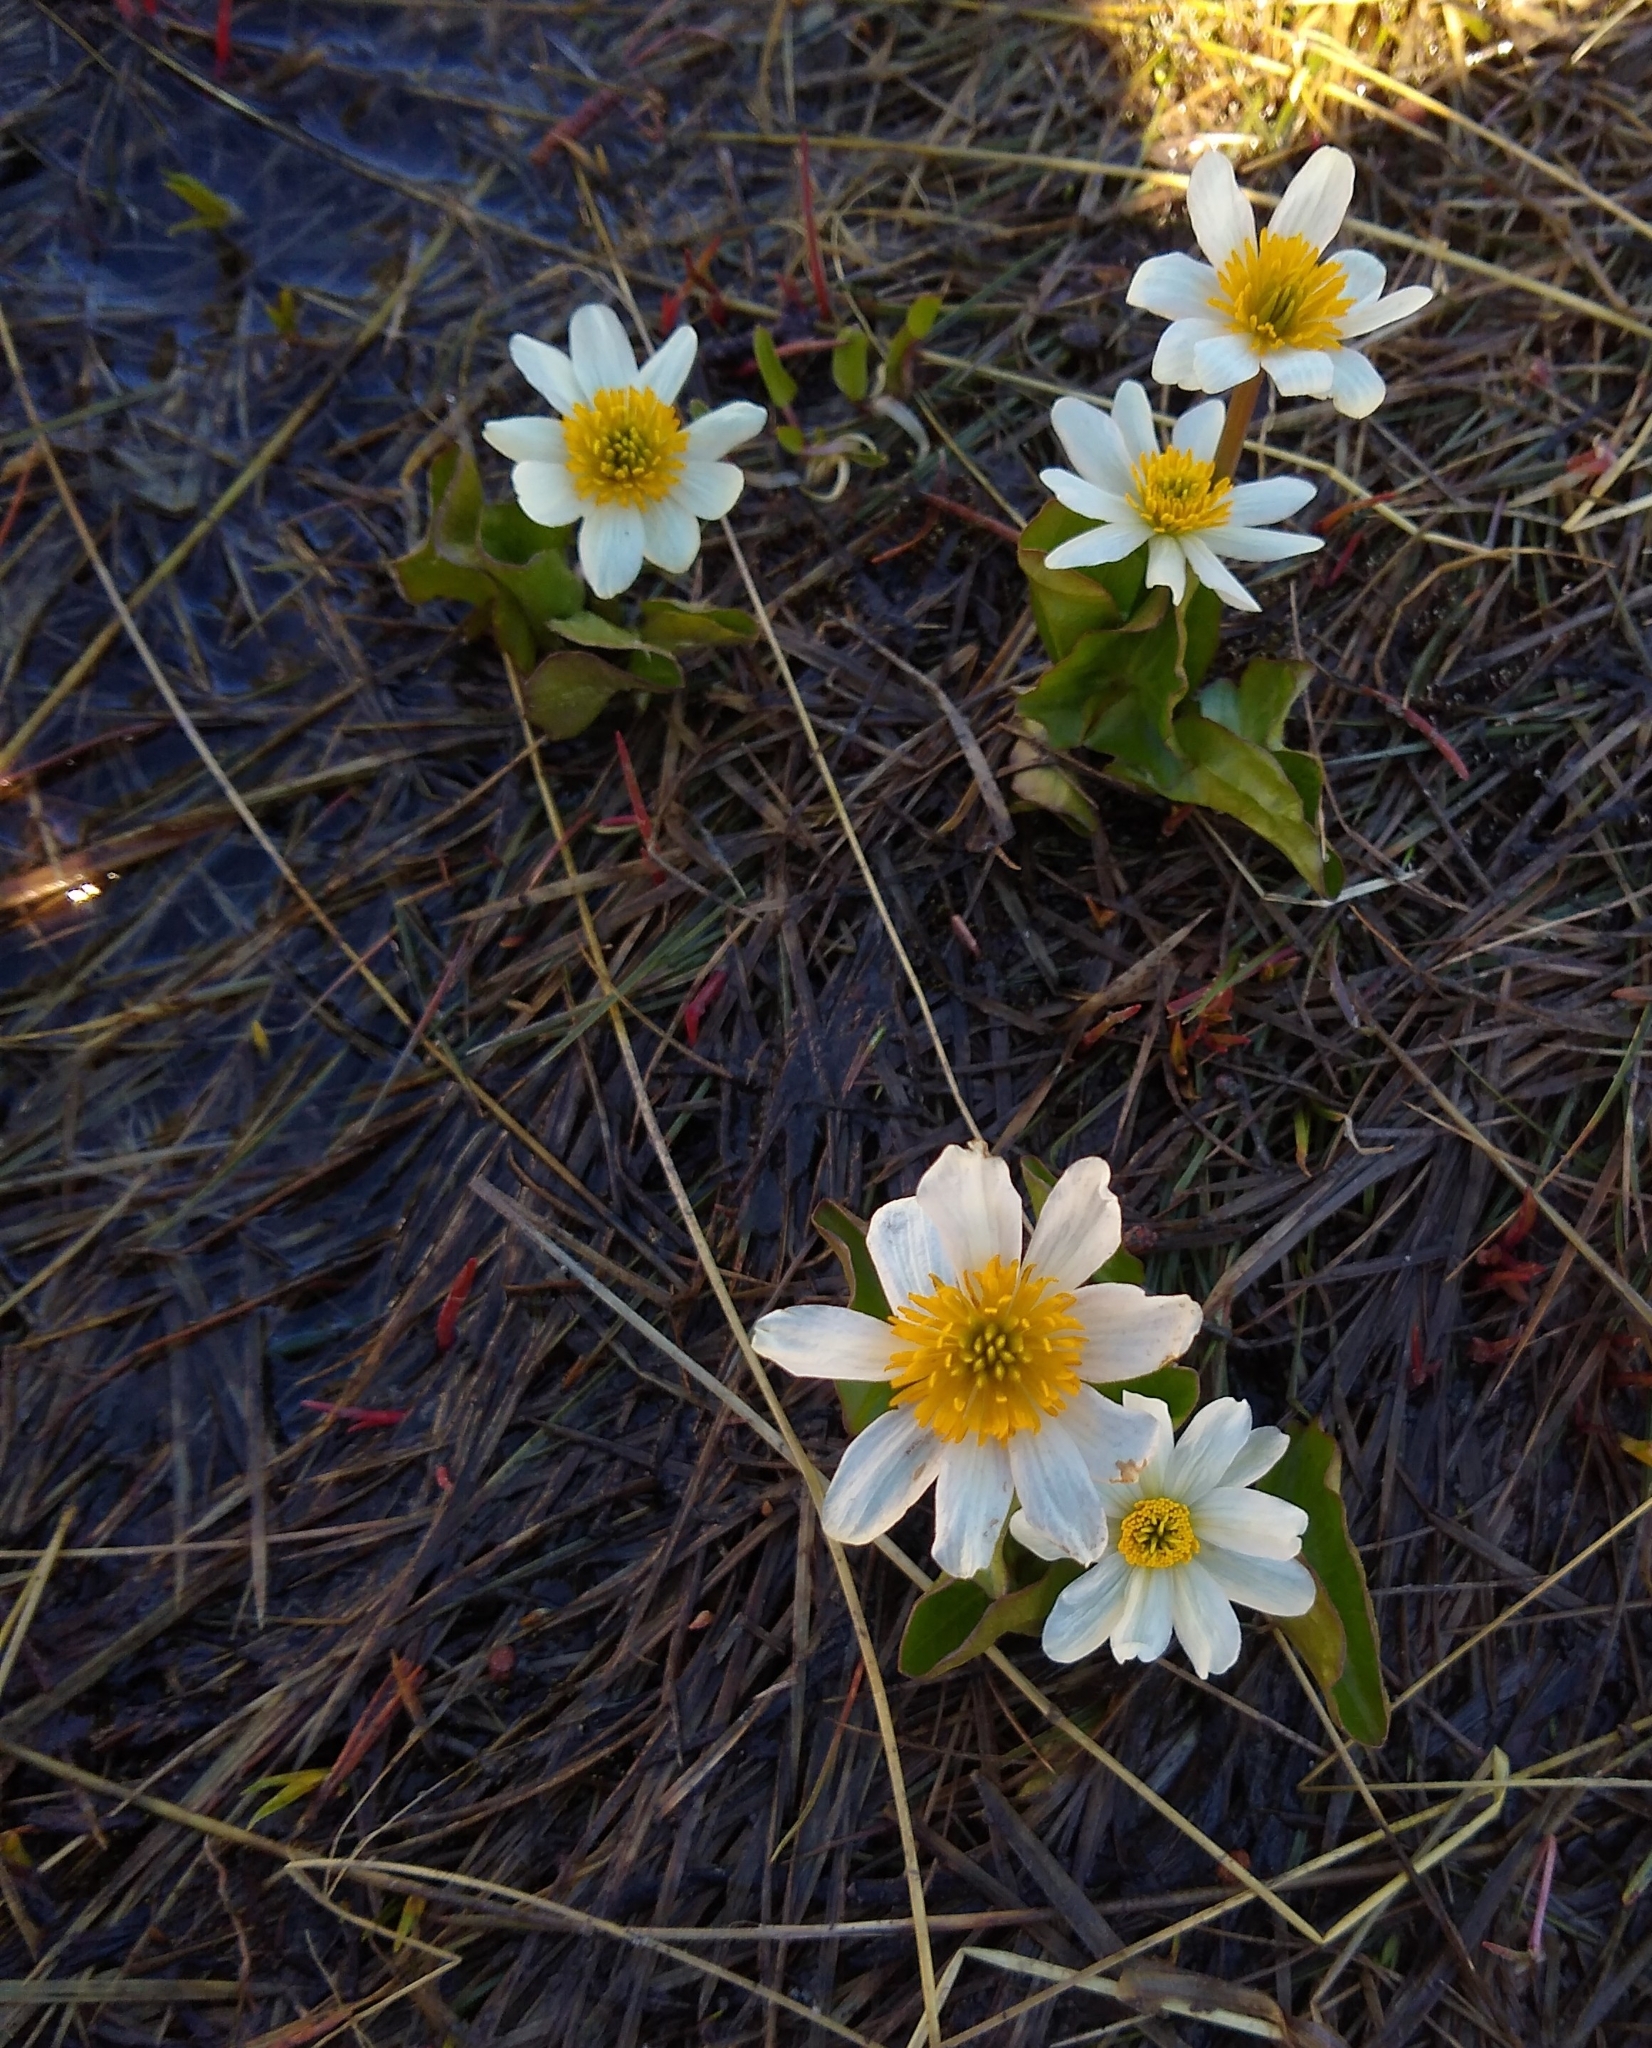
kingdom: Plantae
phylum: Tracheophyta
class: Magnoliopsida
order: Ranunculales
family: Ranunculaceae
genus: Caltha
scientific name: Caltha leptosepala
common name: Elkslip
